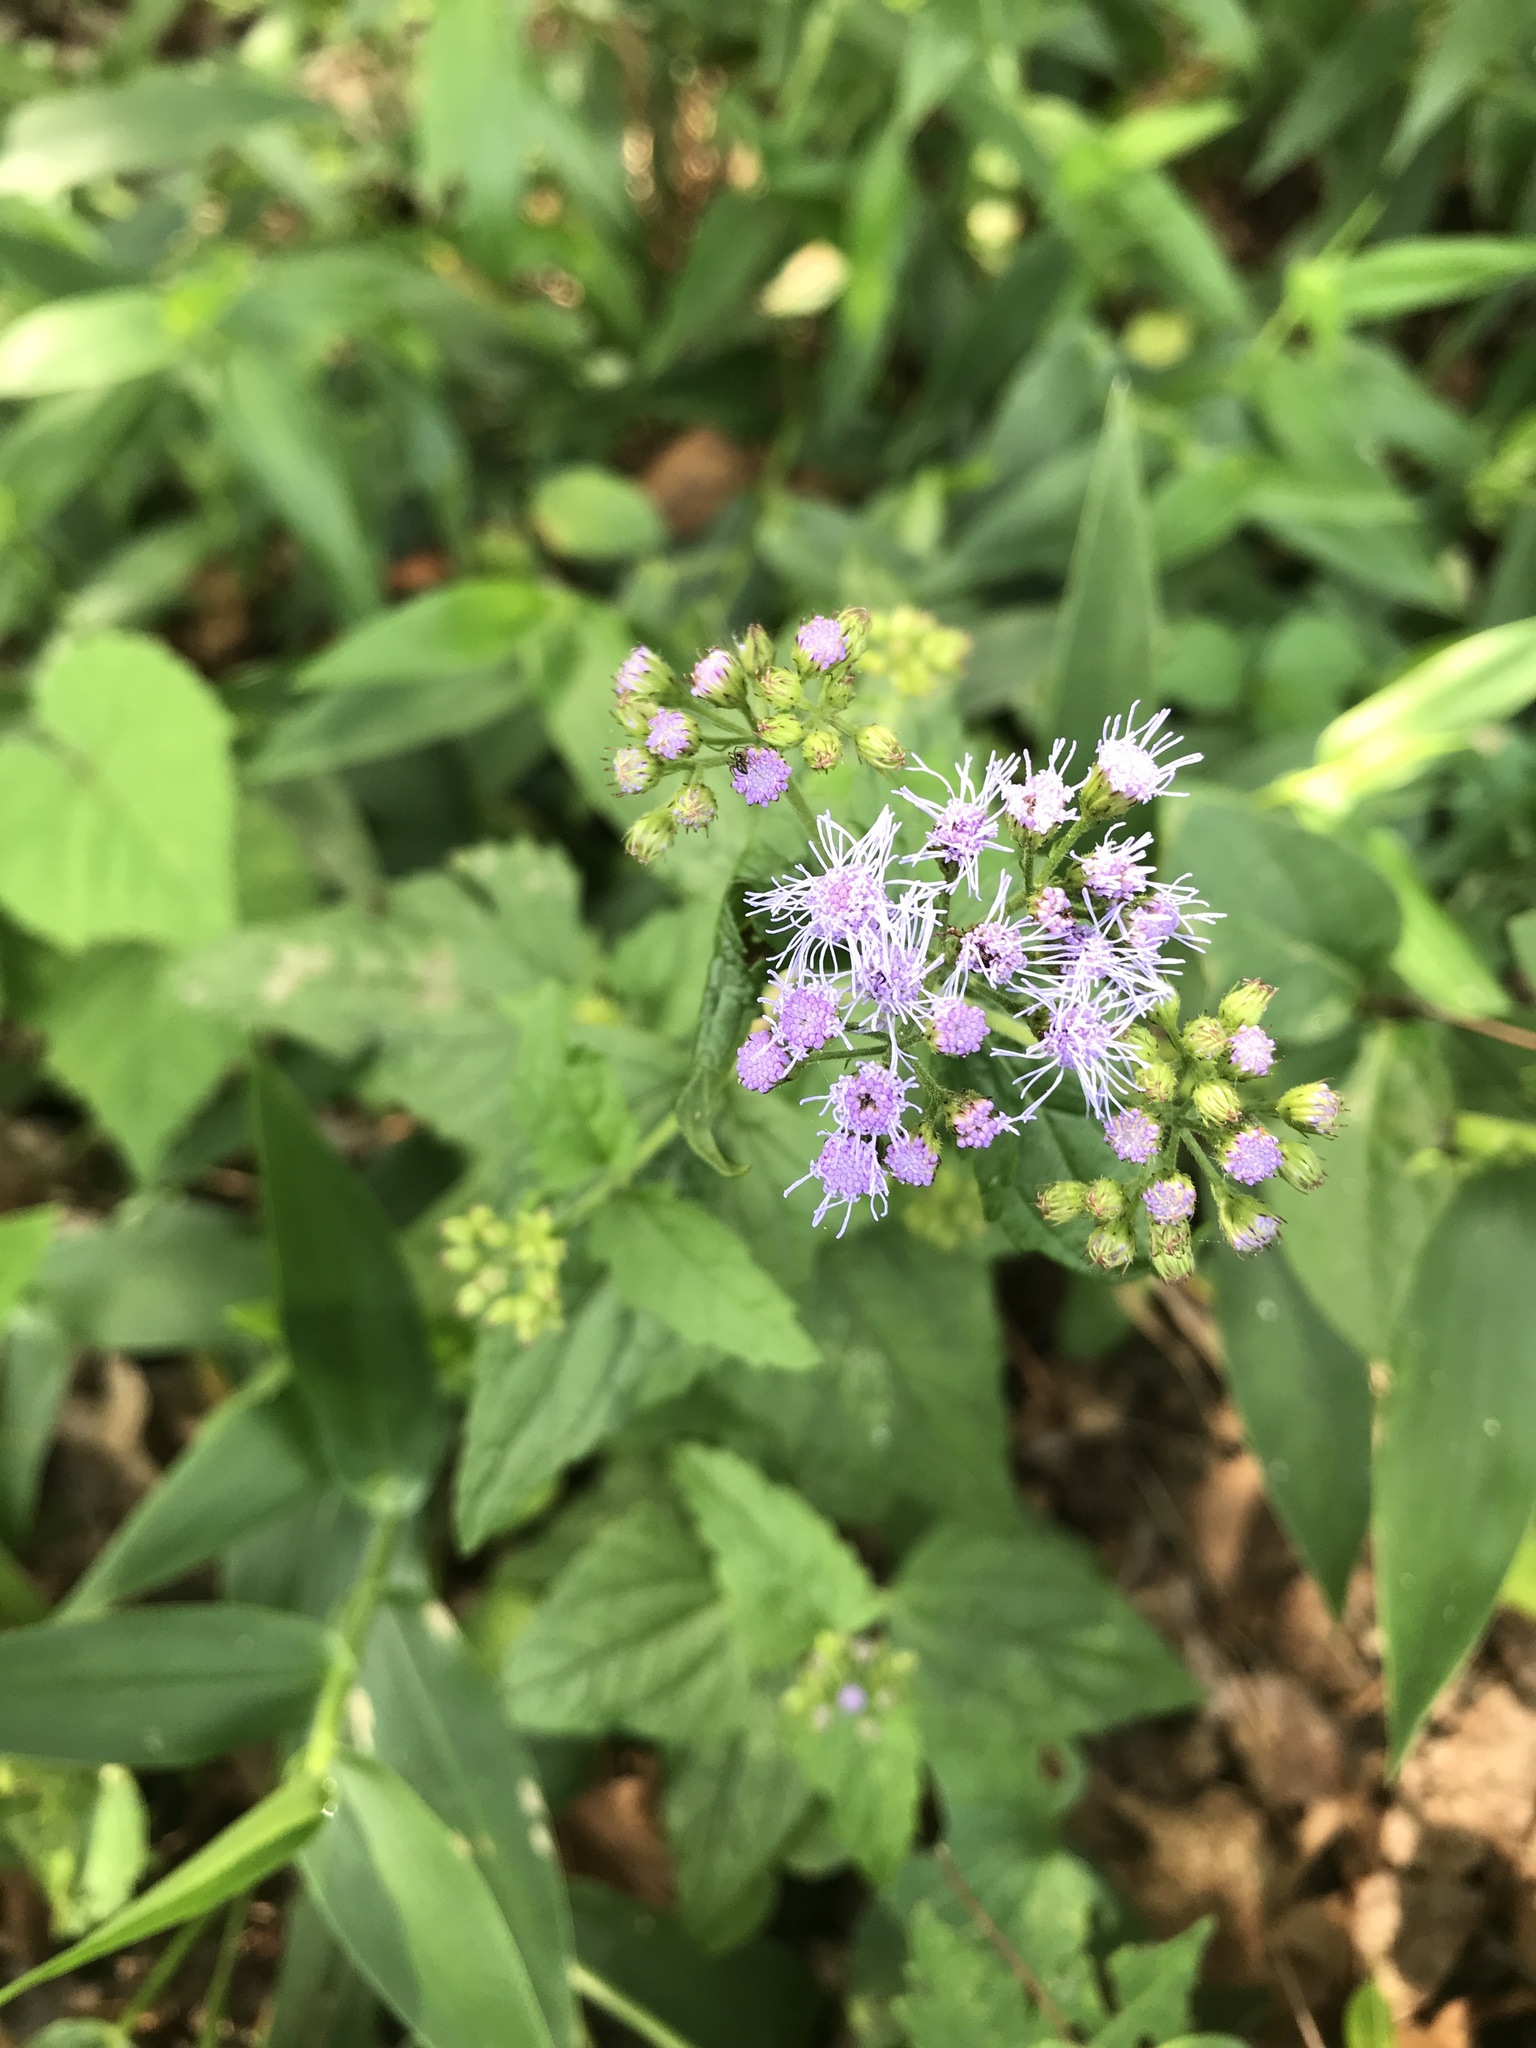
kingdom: Plantae
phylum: Tracheophyta
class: Magnoliopsida
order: Asterales
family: Asteraceae
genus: Conoclinium
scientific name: Conoclinium coelestinum
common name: Blue mistflower
